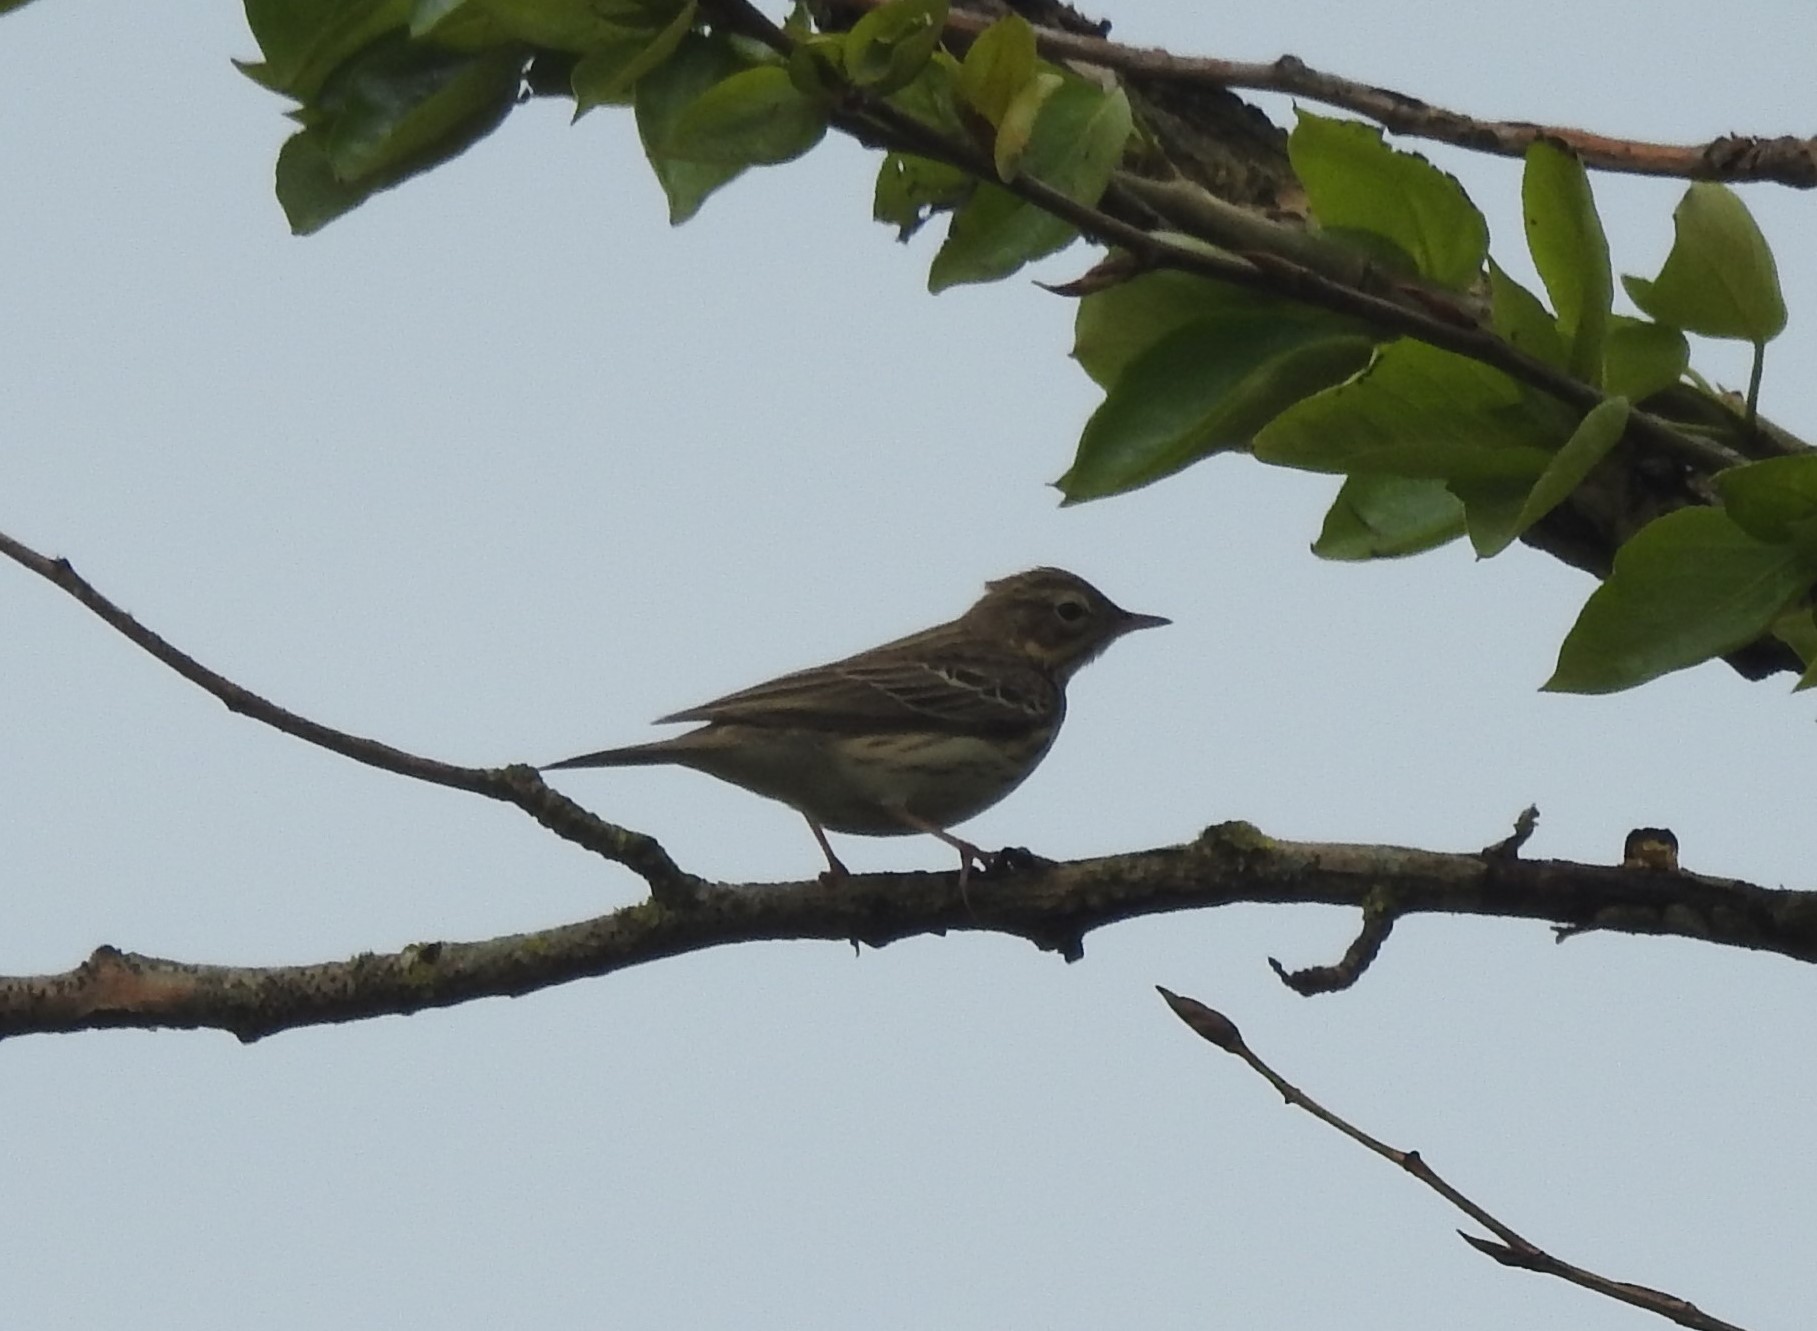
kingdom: Animalia
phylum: Chordata
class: Aves
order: Passeriformes
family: Motacillidae
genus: Anthus
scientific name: Anthus trivialis
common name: Tree pipit
